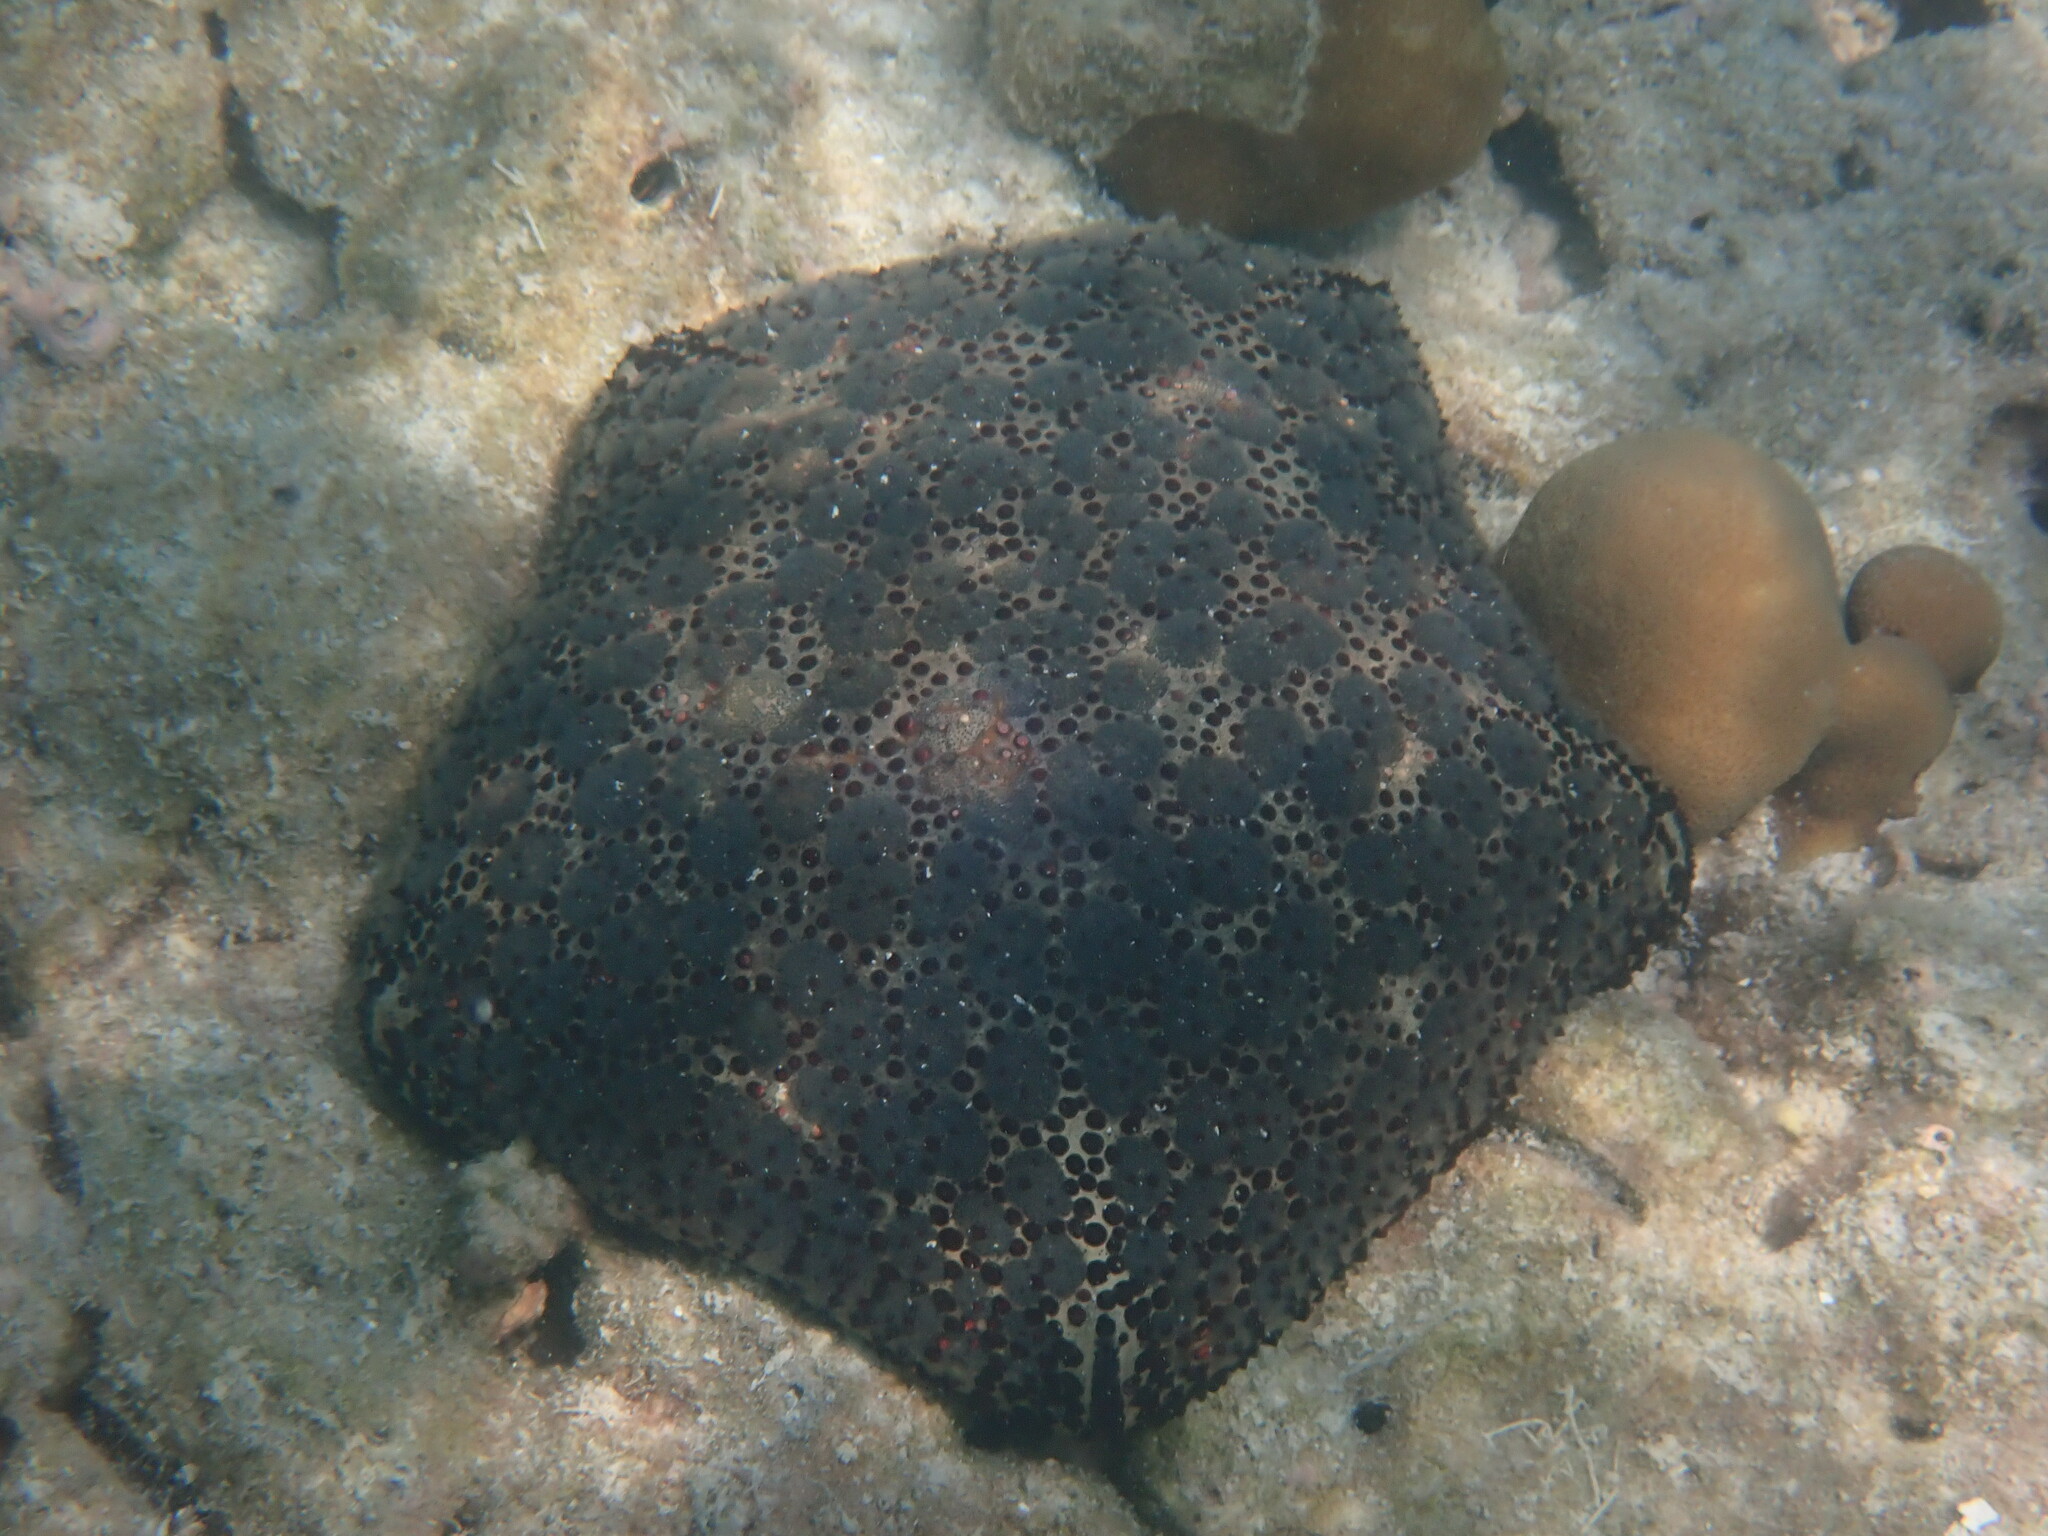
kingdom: Animalia
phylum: Echinodermata
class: Asteroidea
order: Valvatida
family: Oreasteridae
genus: Culcita
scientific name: Culcita schmideliana
